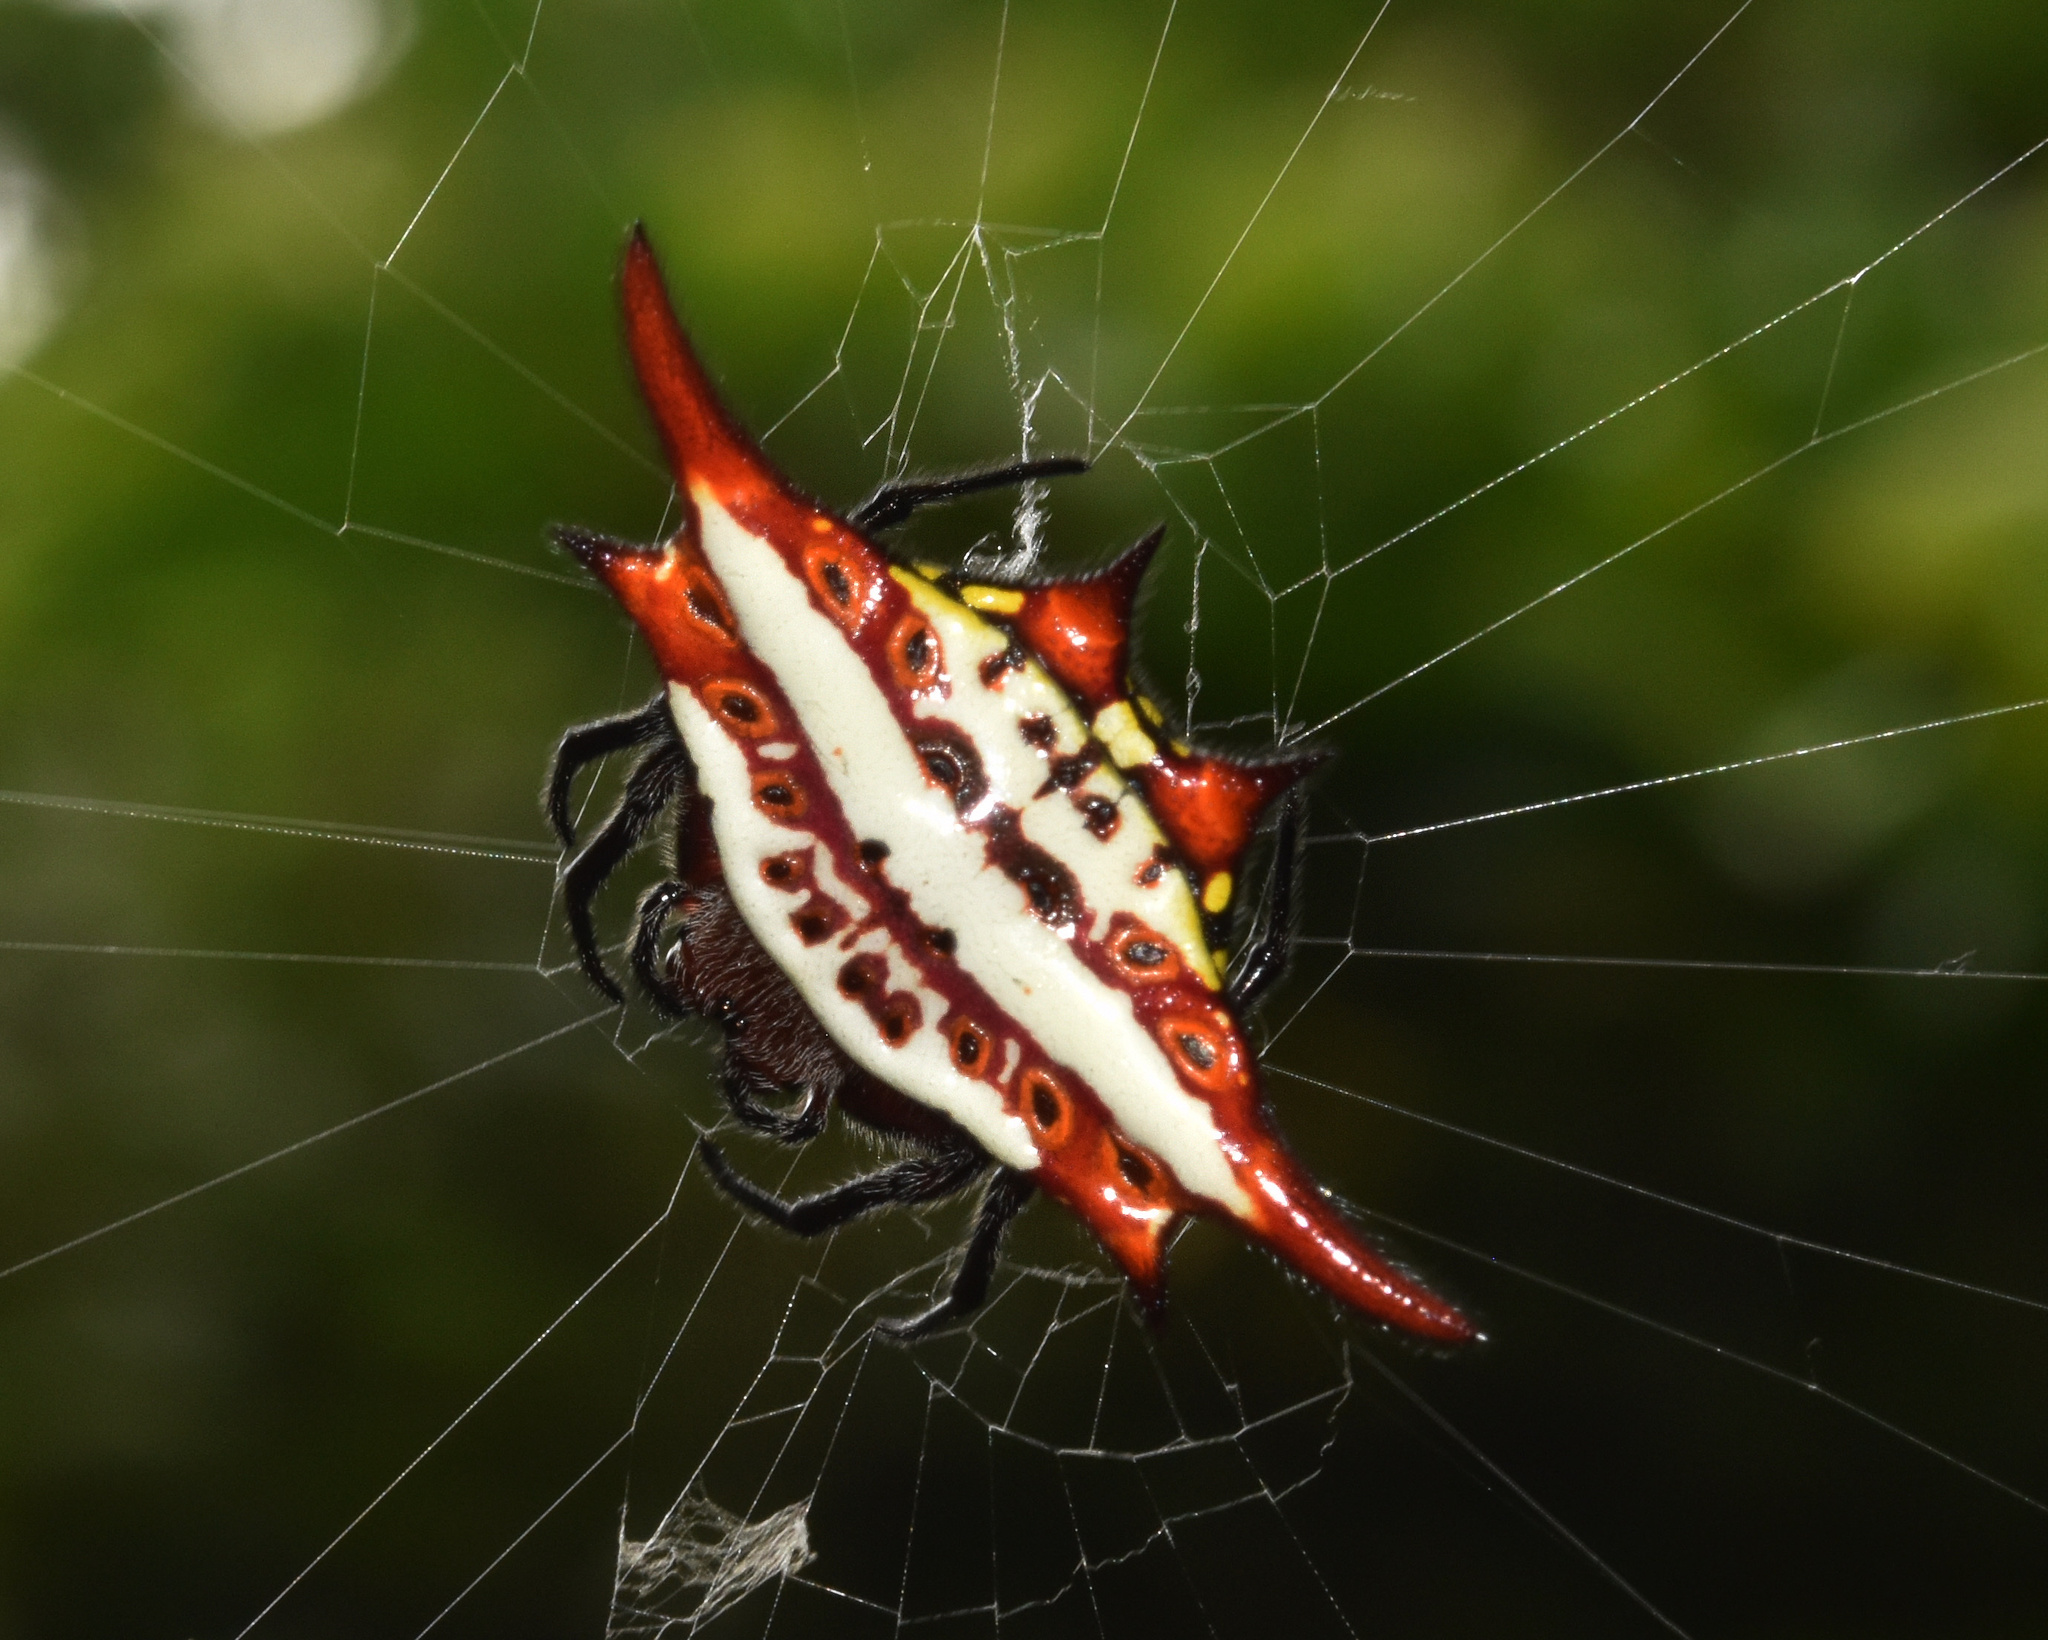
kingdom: Animalia
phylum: Arthropoda
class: Arachnida
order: Araneae
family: Araneidae
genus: Gasteracantha
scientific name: Gasteracantha milvoides
